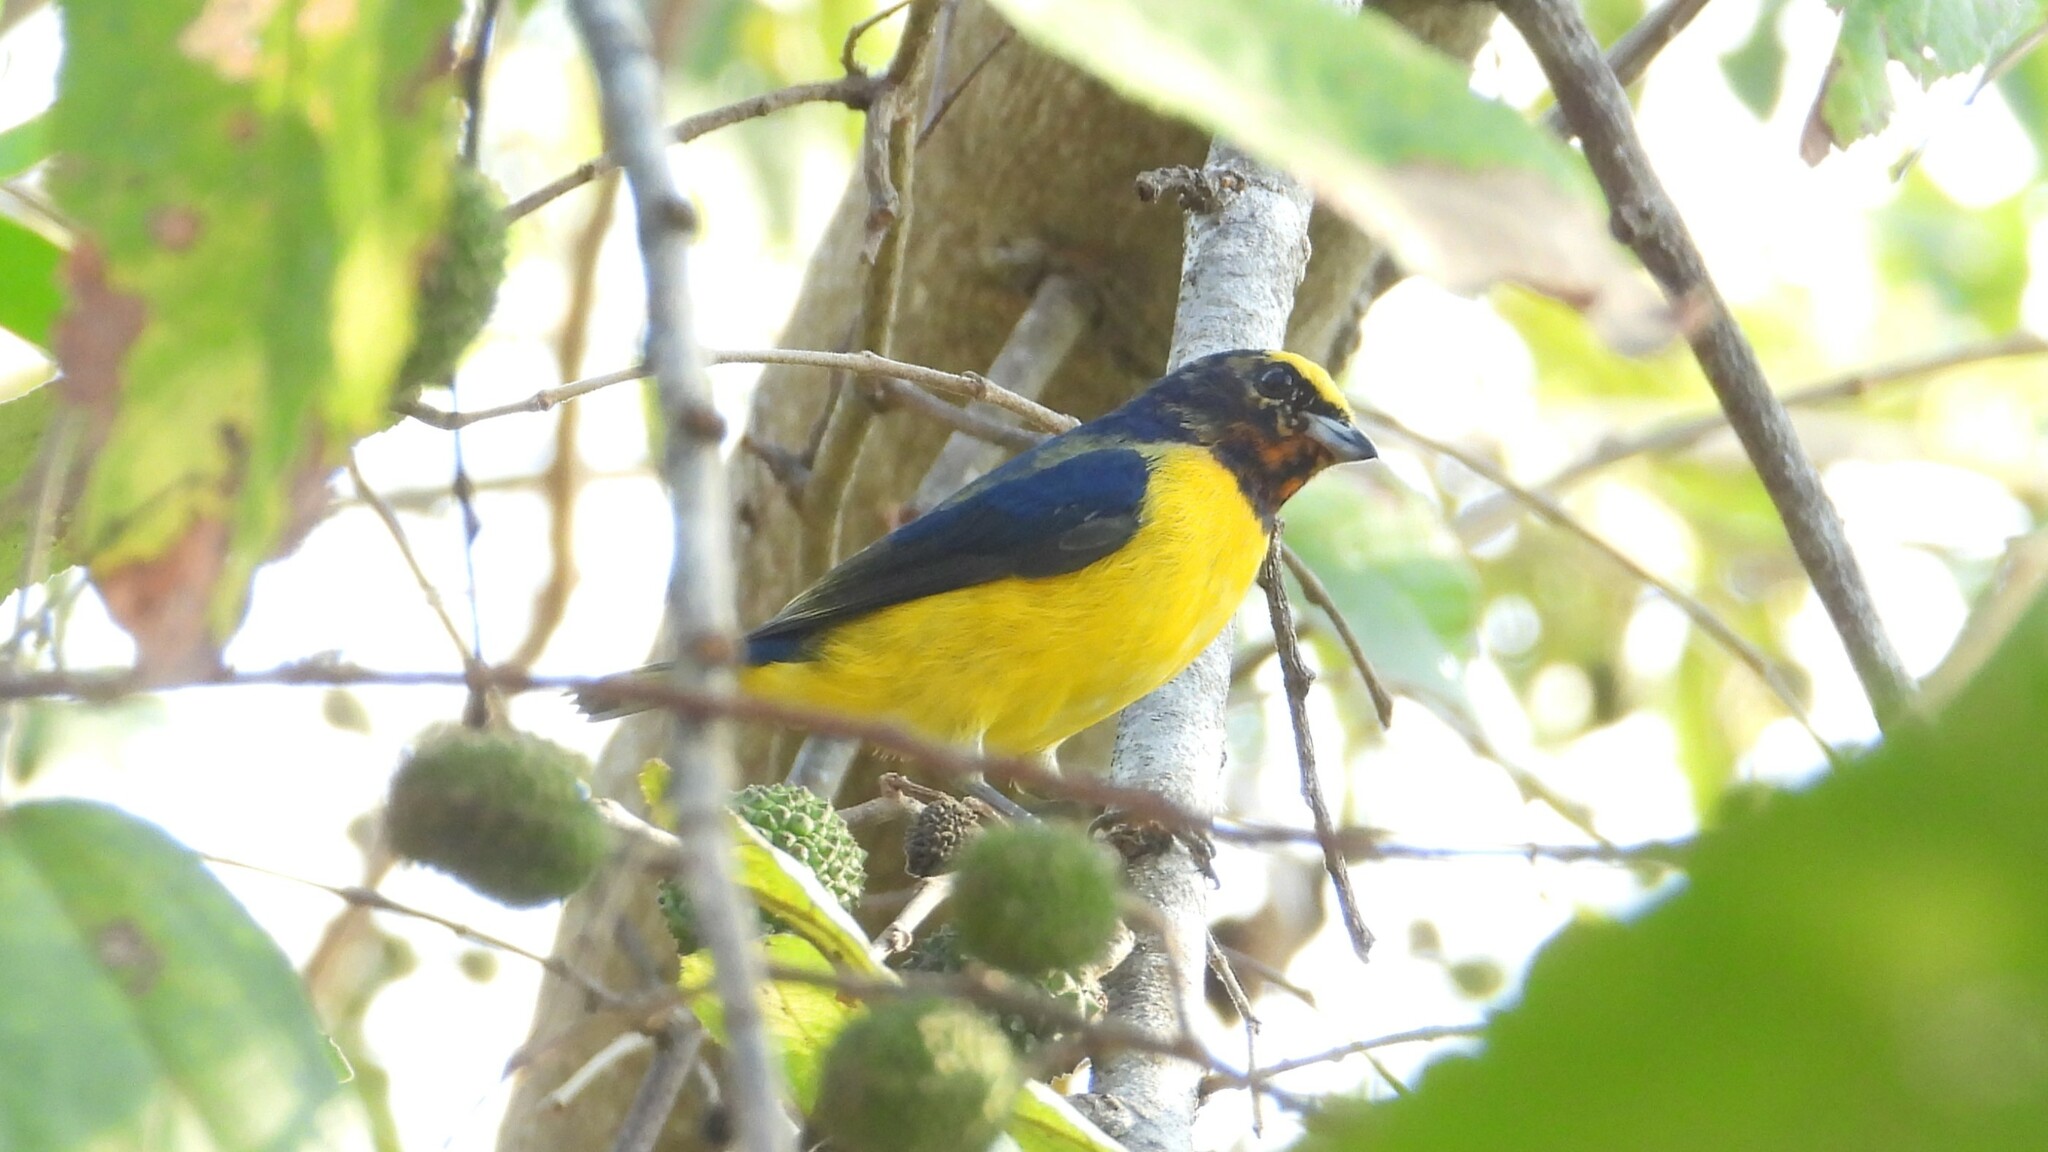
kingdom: Animalia
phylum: Chordata
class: Aves
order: Passeriformes
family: Fringillidae
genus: Euphonia
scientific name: Euphonia affinis
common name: Scrub euphonia
